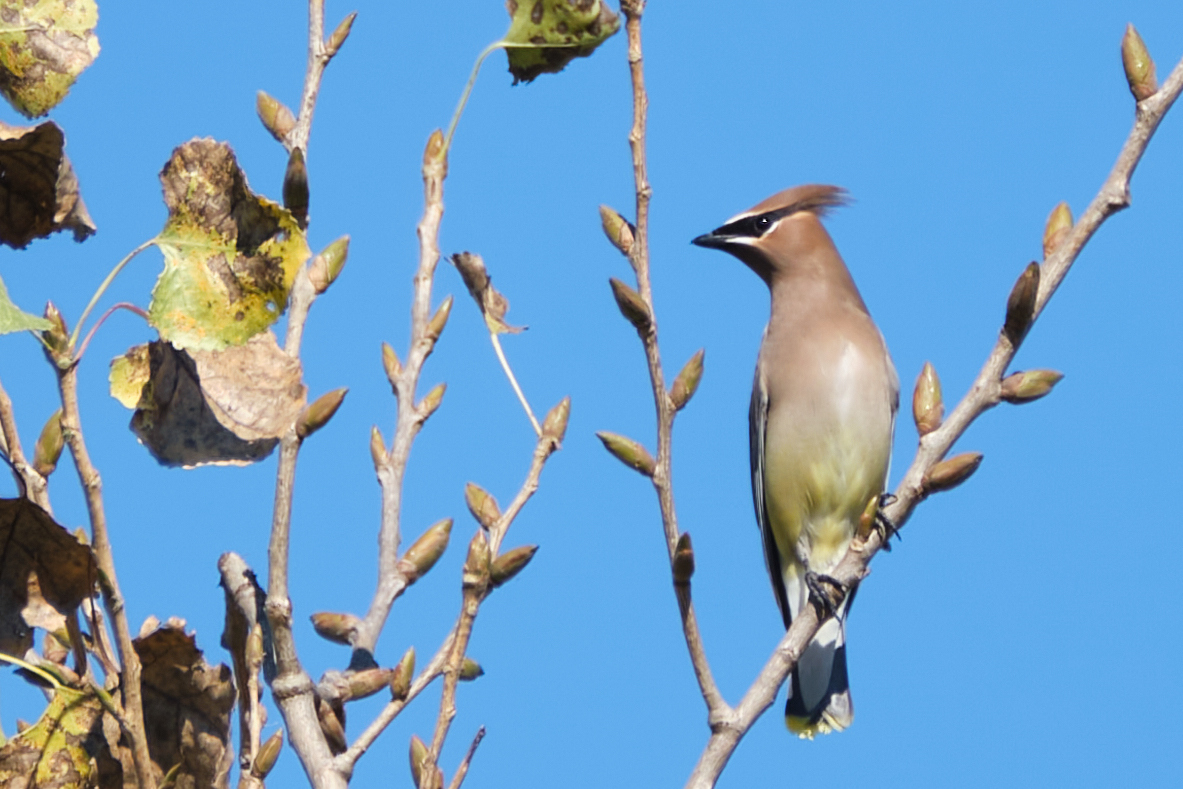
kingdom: Animalia
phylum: Chordata
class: Aves
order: Passeriformes
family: Bombycillidae
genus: Bombycilla
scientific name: Bombycilla cedrorum
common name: Cedar waxwing
